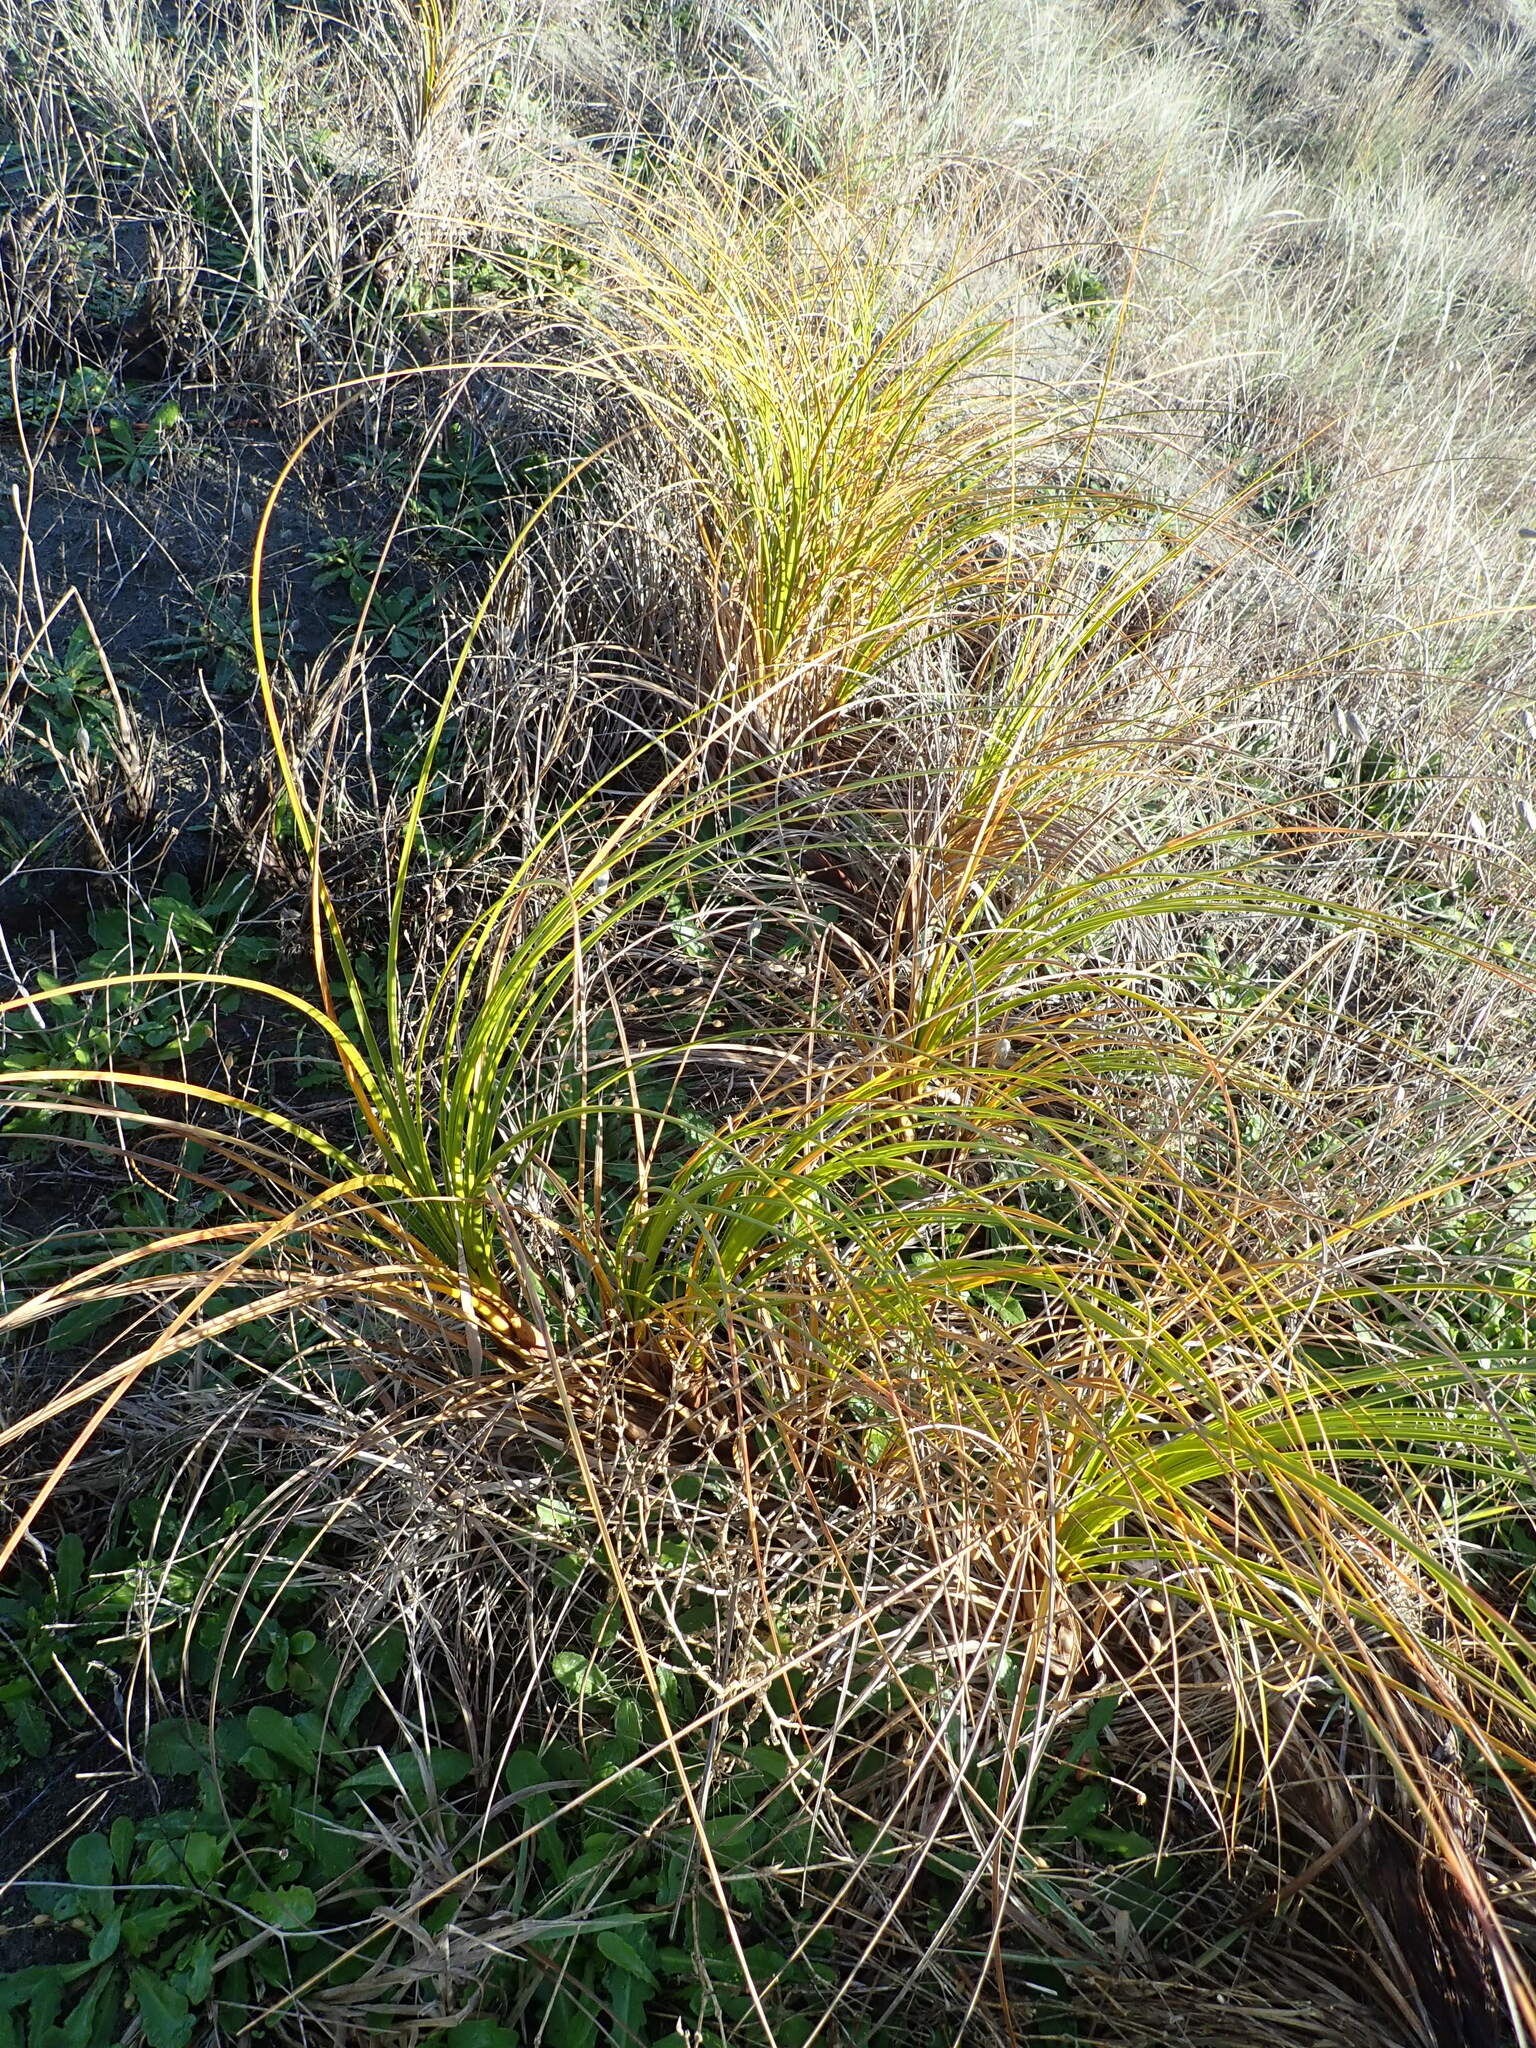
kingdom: Plantae
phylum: Tracheophyta
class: Liliopsida
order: Poales
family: Cyperaceae
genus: Ficinia
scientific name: Ficinia spiralis
